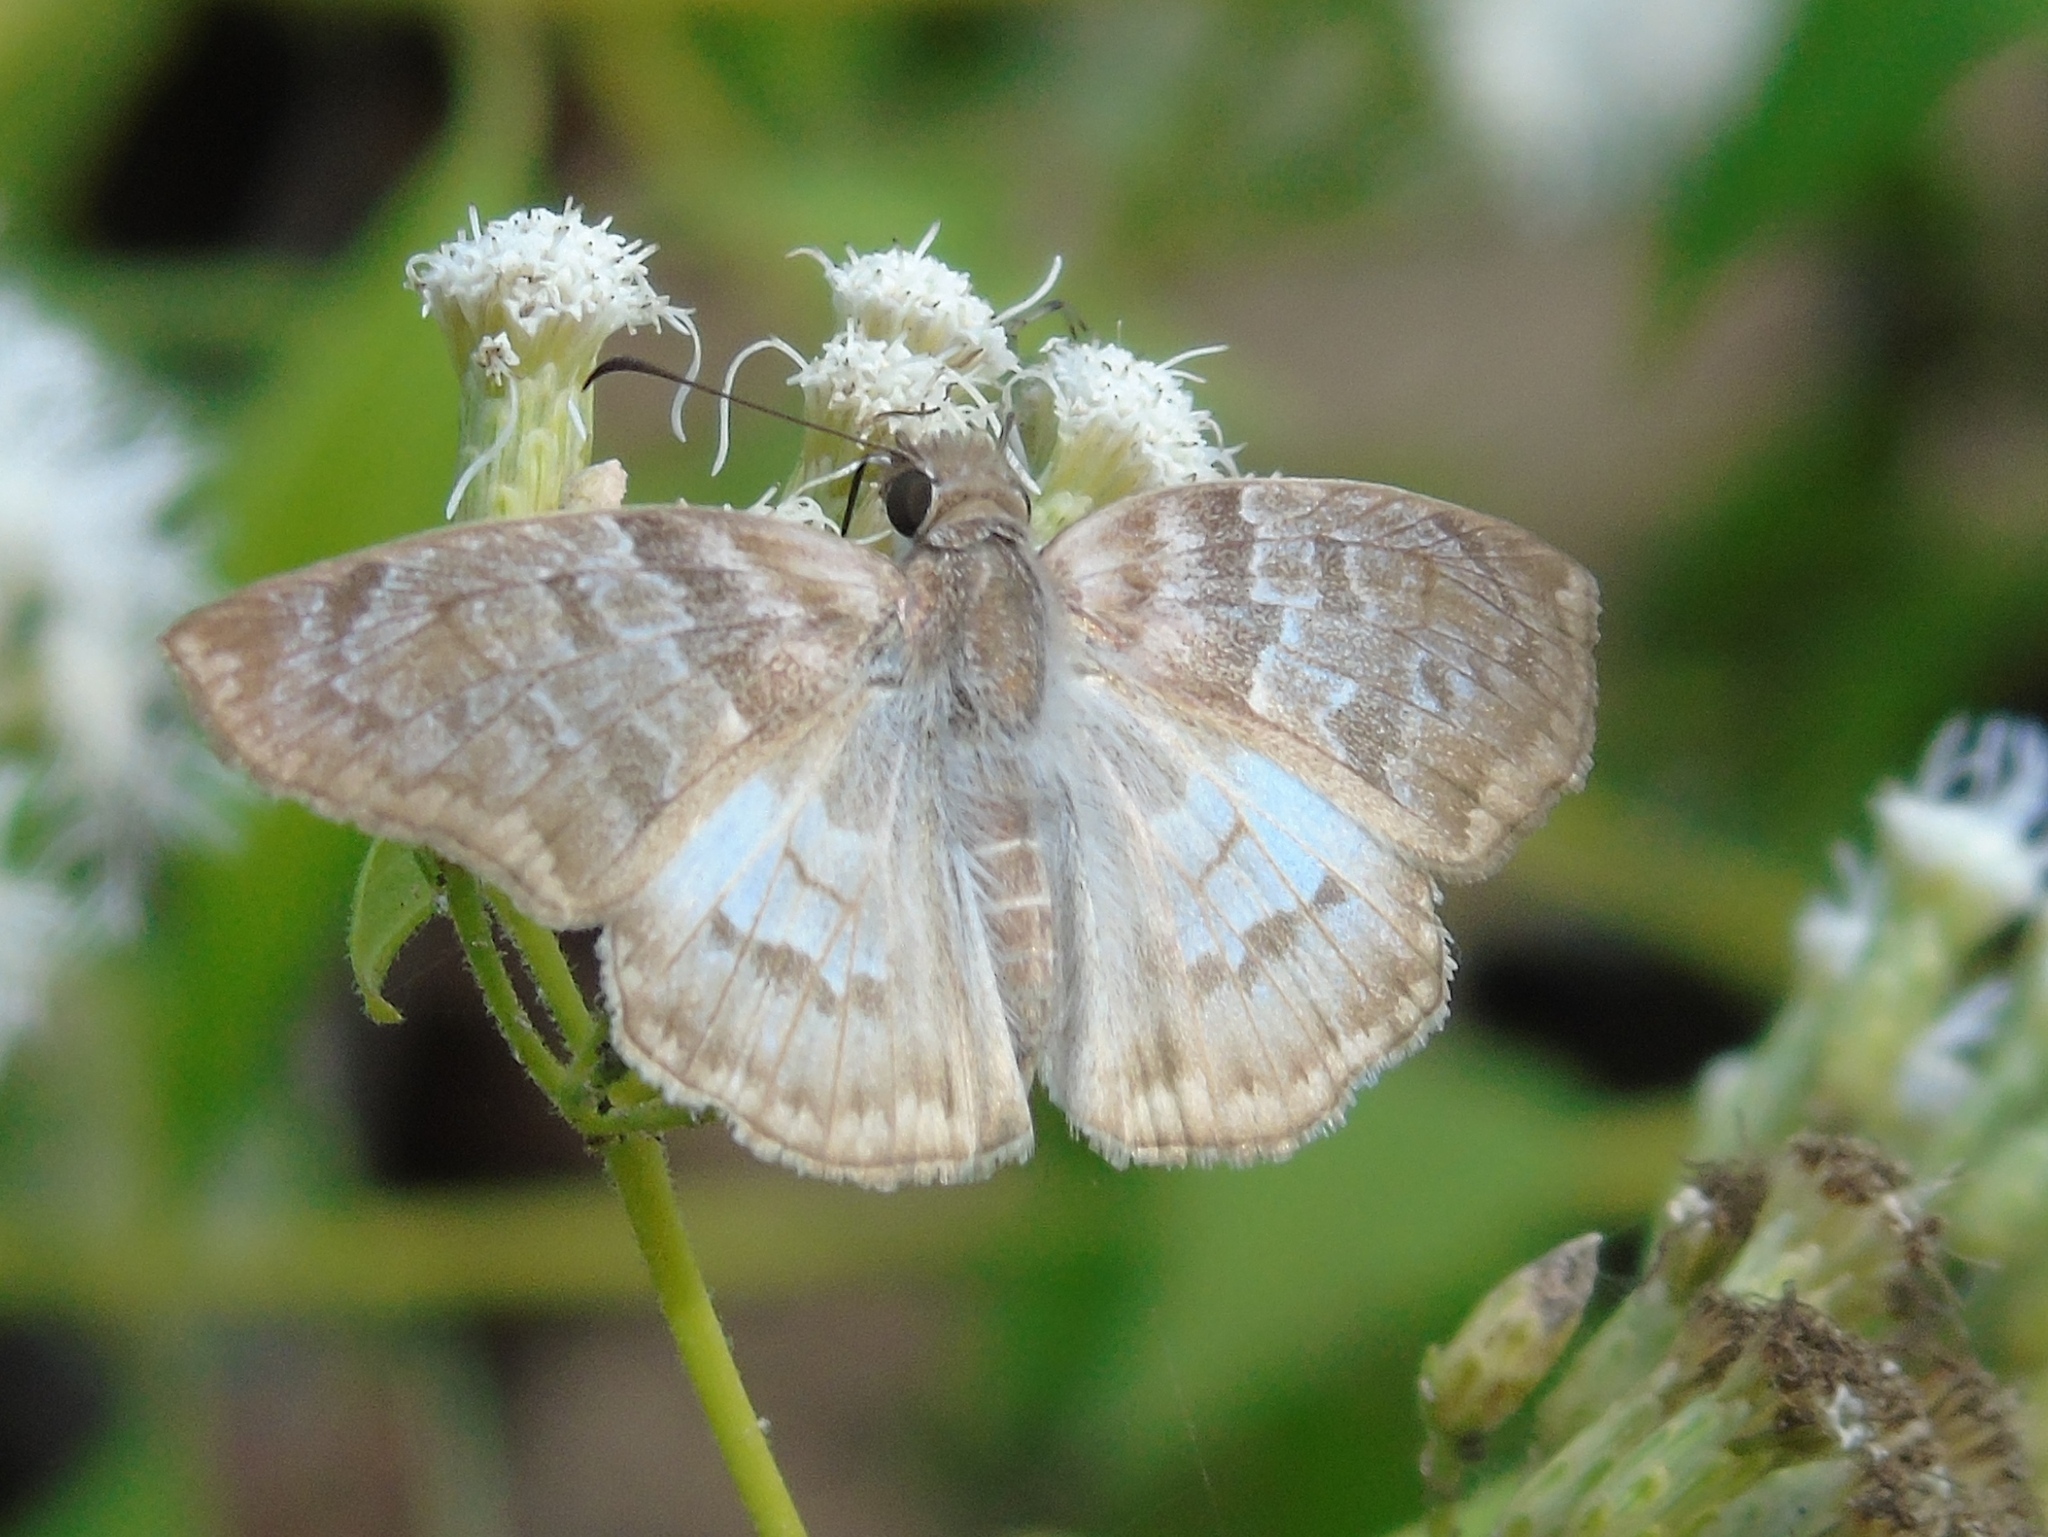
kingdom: Animalia
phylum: Arthropoda
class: Insecta
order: Lepidoptera
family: Hesperiidae
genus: Mylon
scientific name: Mylon pelopidas
